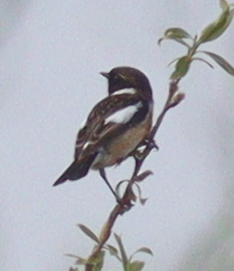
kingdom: Animalia
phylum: Chordata
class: Aves
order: Passeriformes
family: Muscicapidae
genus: Saxicola
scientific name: Saxicola rubicola
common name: European stonechat
